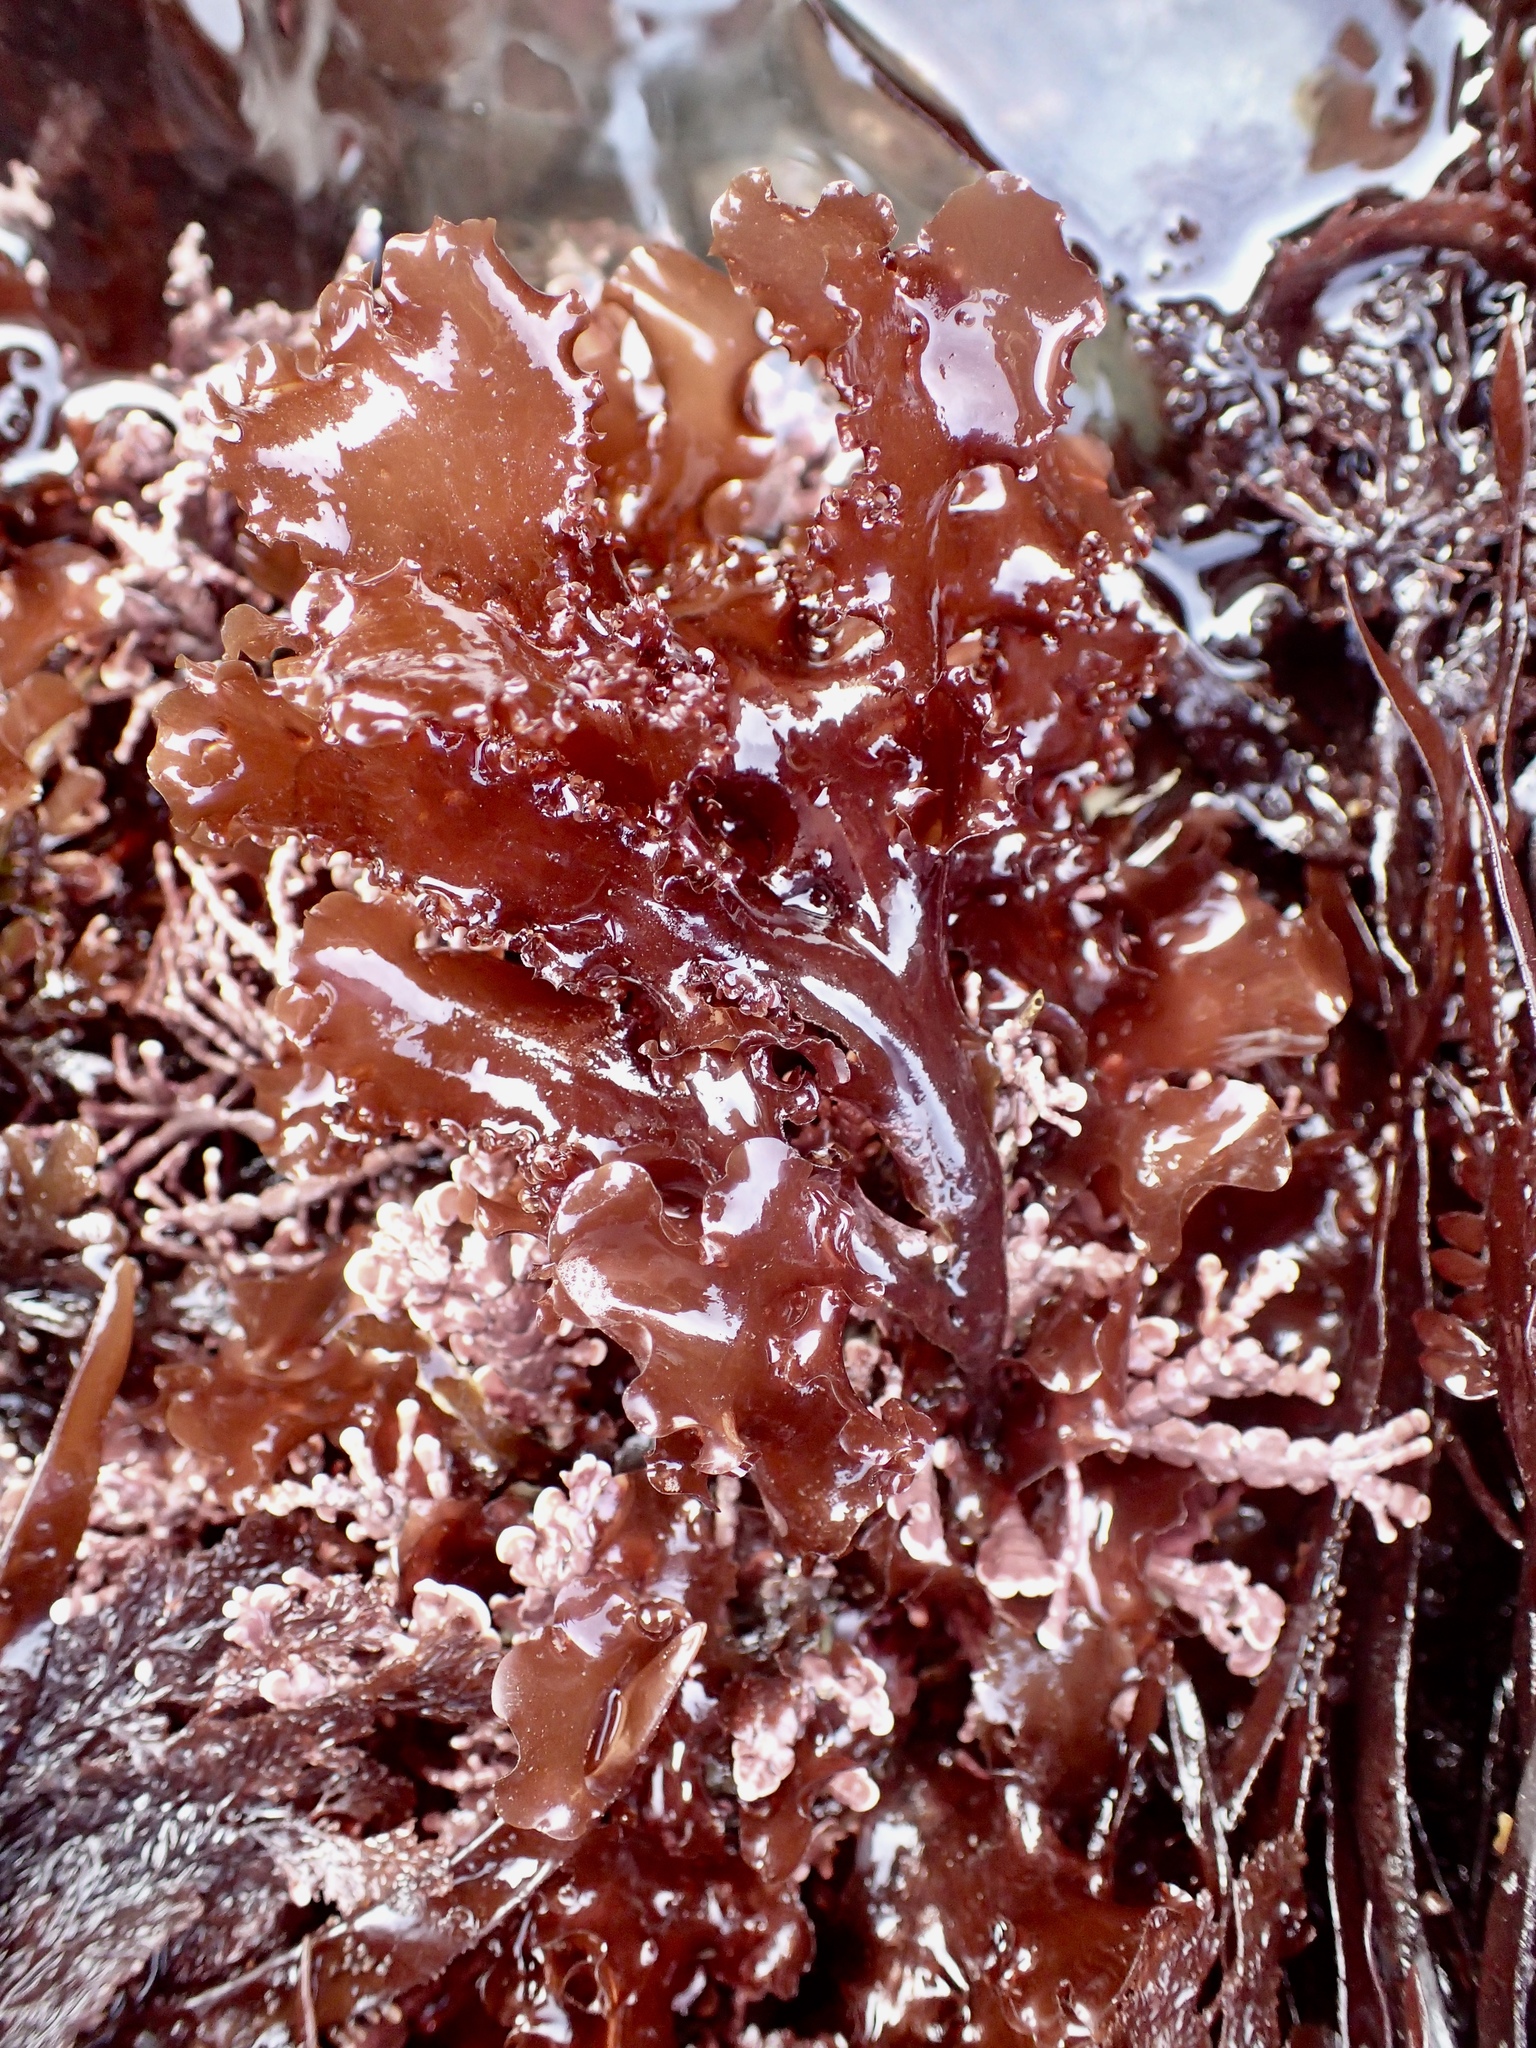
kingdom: Plantae
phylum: Rhodophyta
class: Florideophyceae
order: Ceramiales
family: Delesseriaceae
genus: Cryptopleura
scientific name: Cryptopleura ruprechtiana
